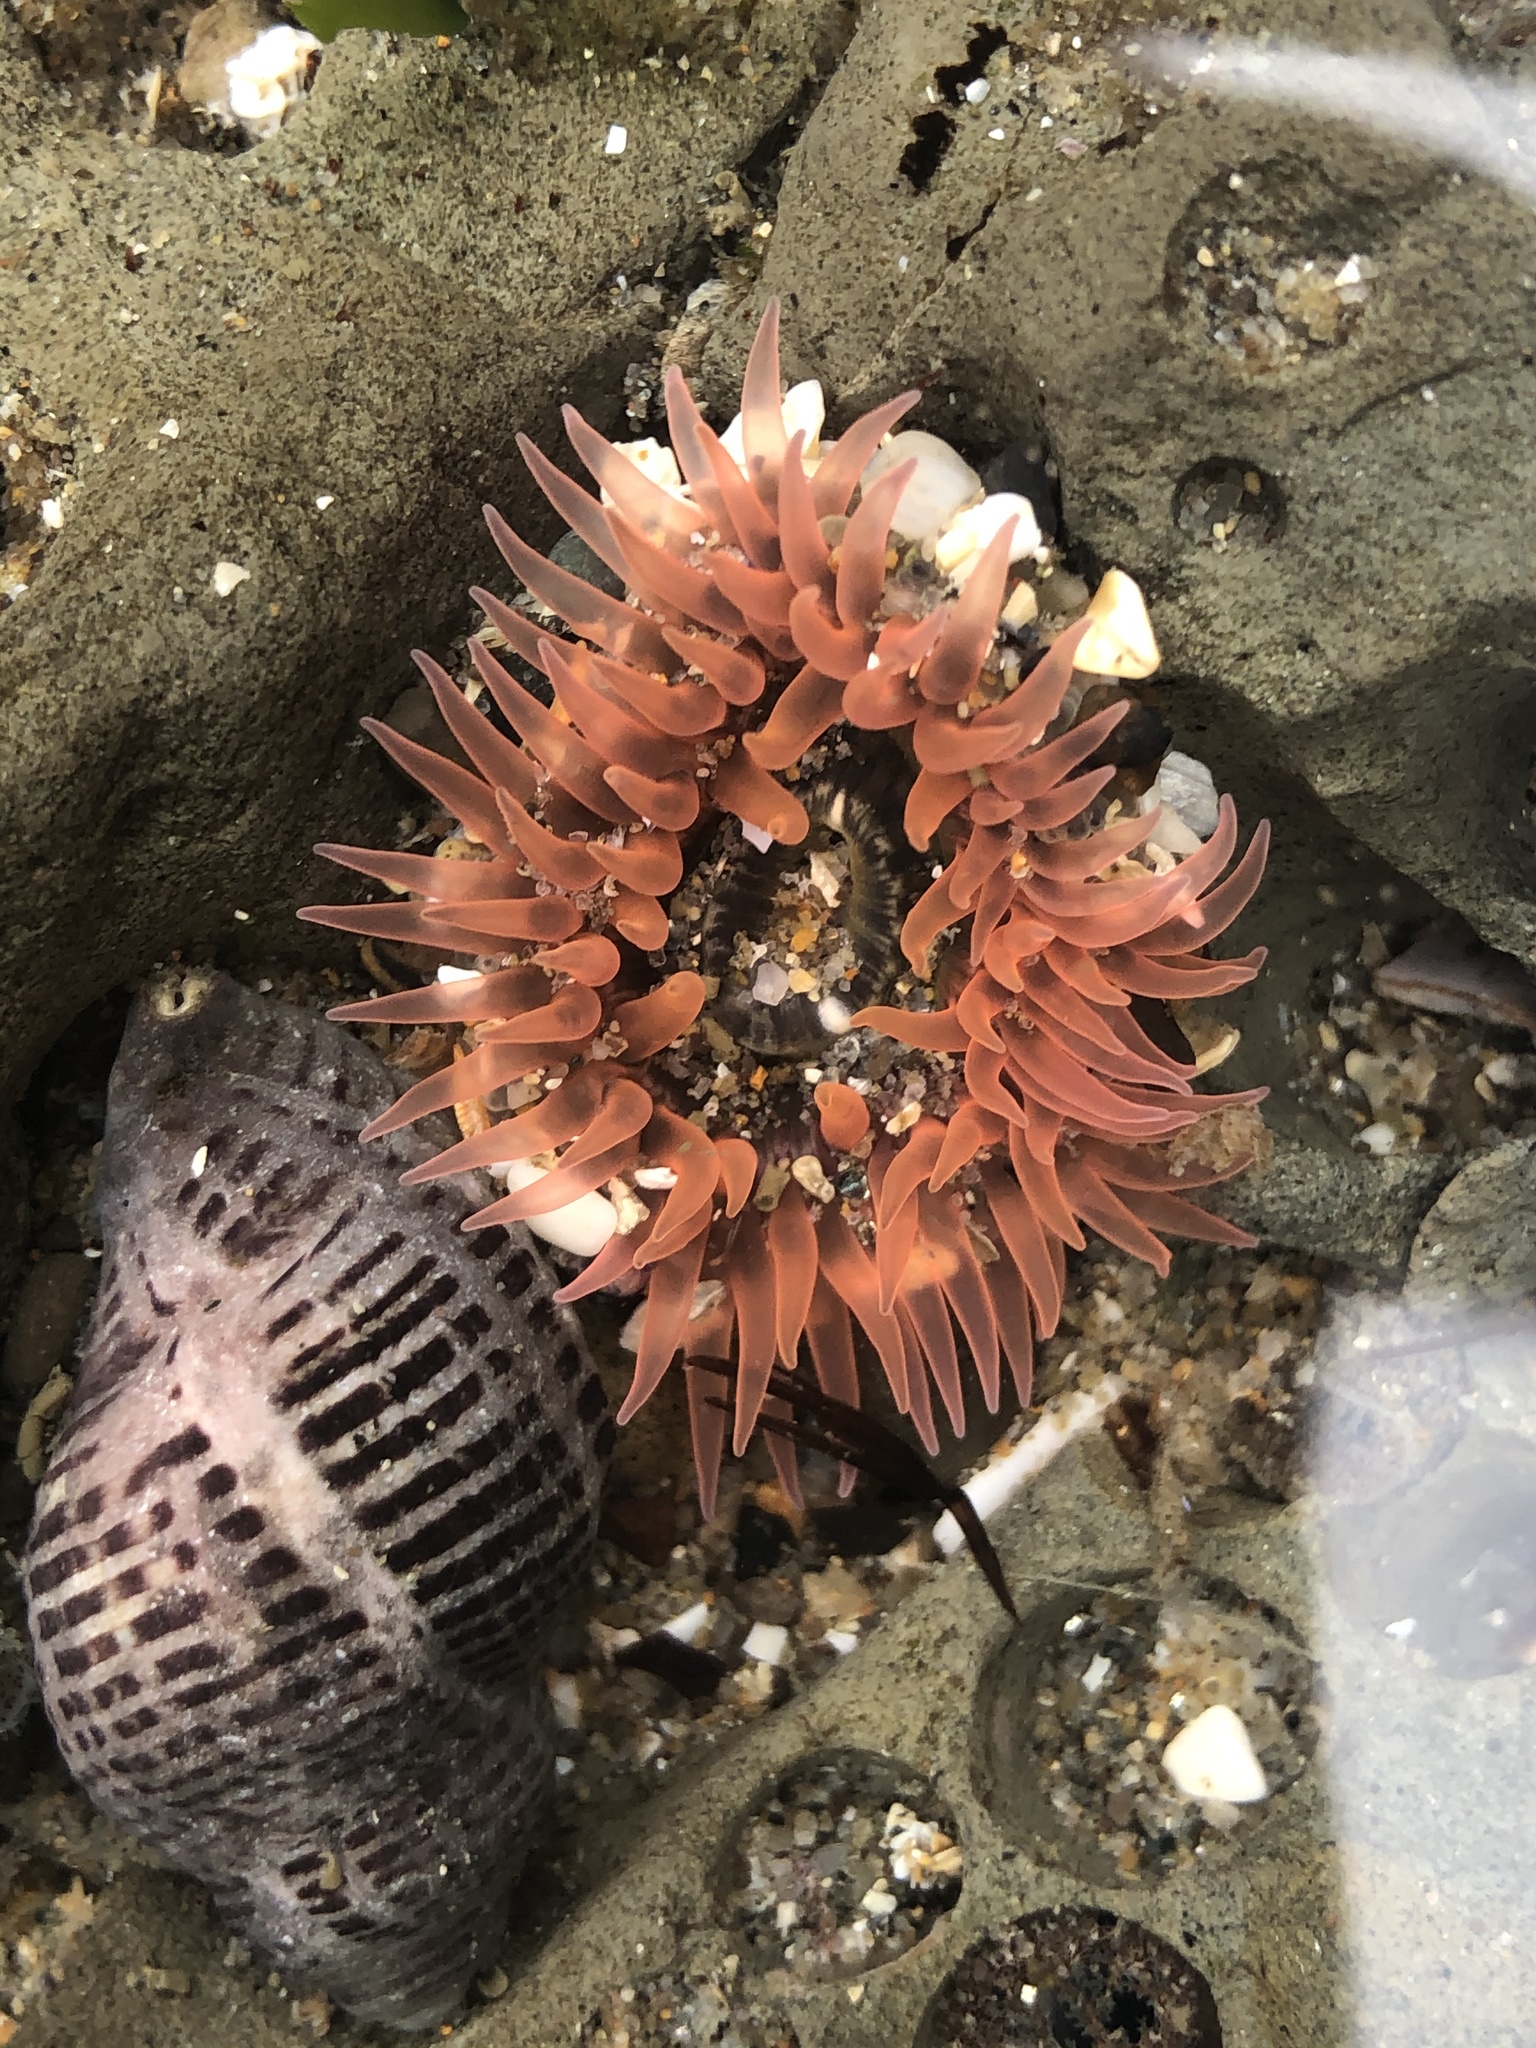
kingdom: Animalia
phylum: Cnidaria
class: Anthozoa
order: Actiniaria
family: Actiniidae
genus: Anthopleura
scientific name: Anthopleura artemisia
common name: Buried sea anemone
